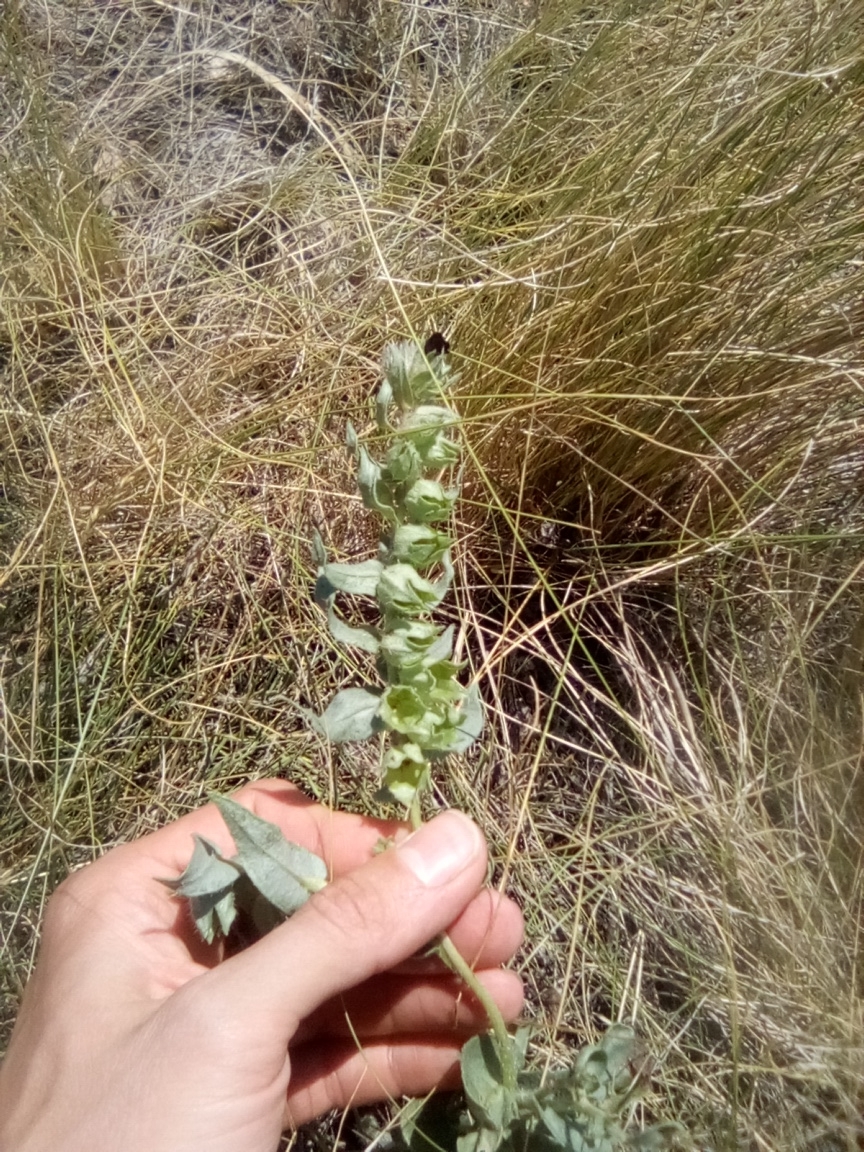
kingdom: Plantae
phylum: Tracheophyta
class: Magnoliopsida
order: Boraginales
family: Boraginaceae
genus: Nonea
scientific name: Nonea pulla
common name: Brown nonea
